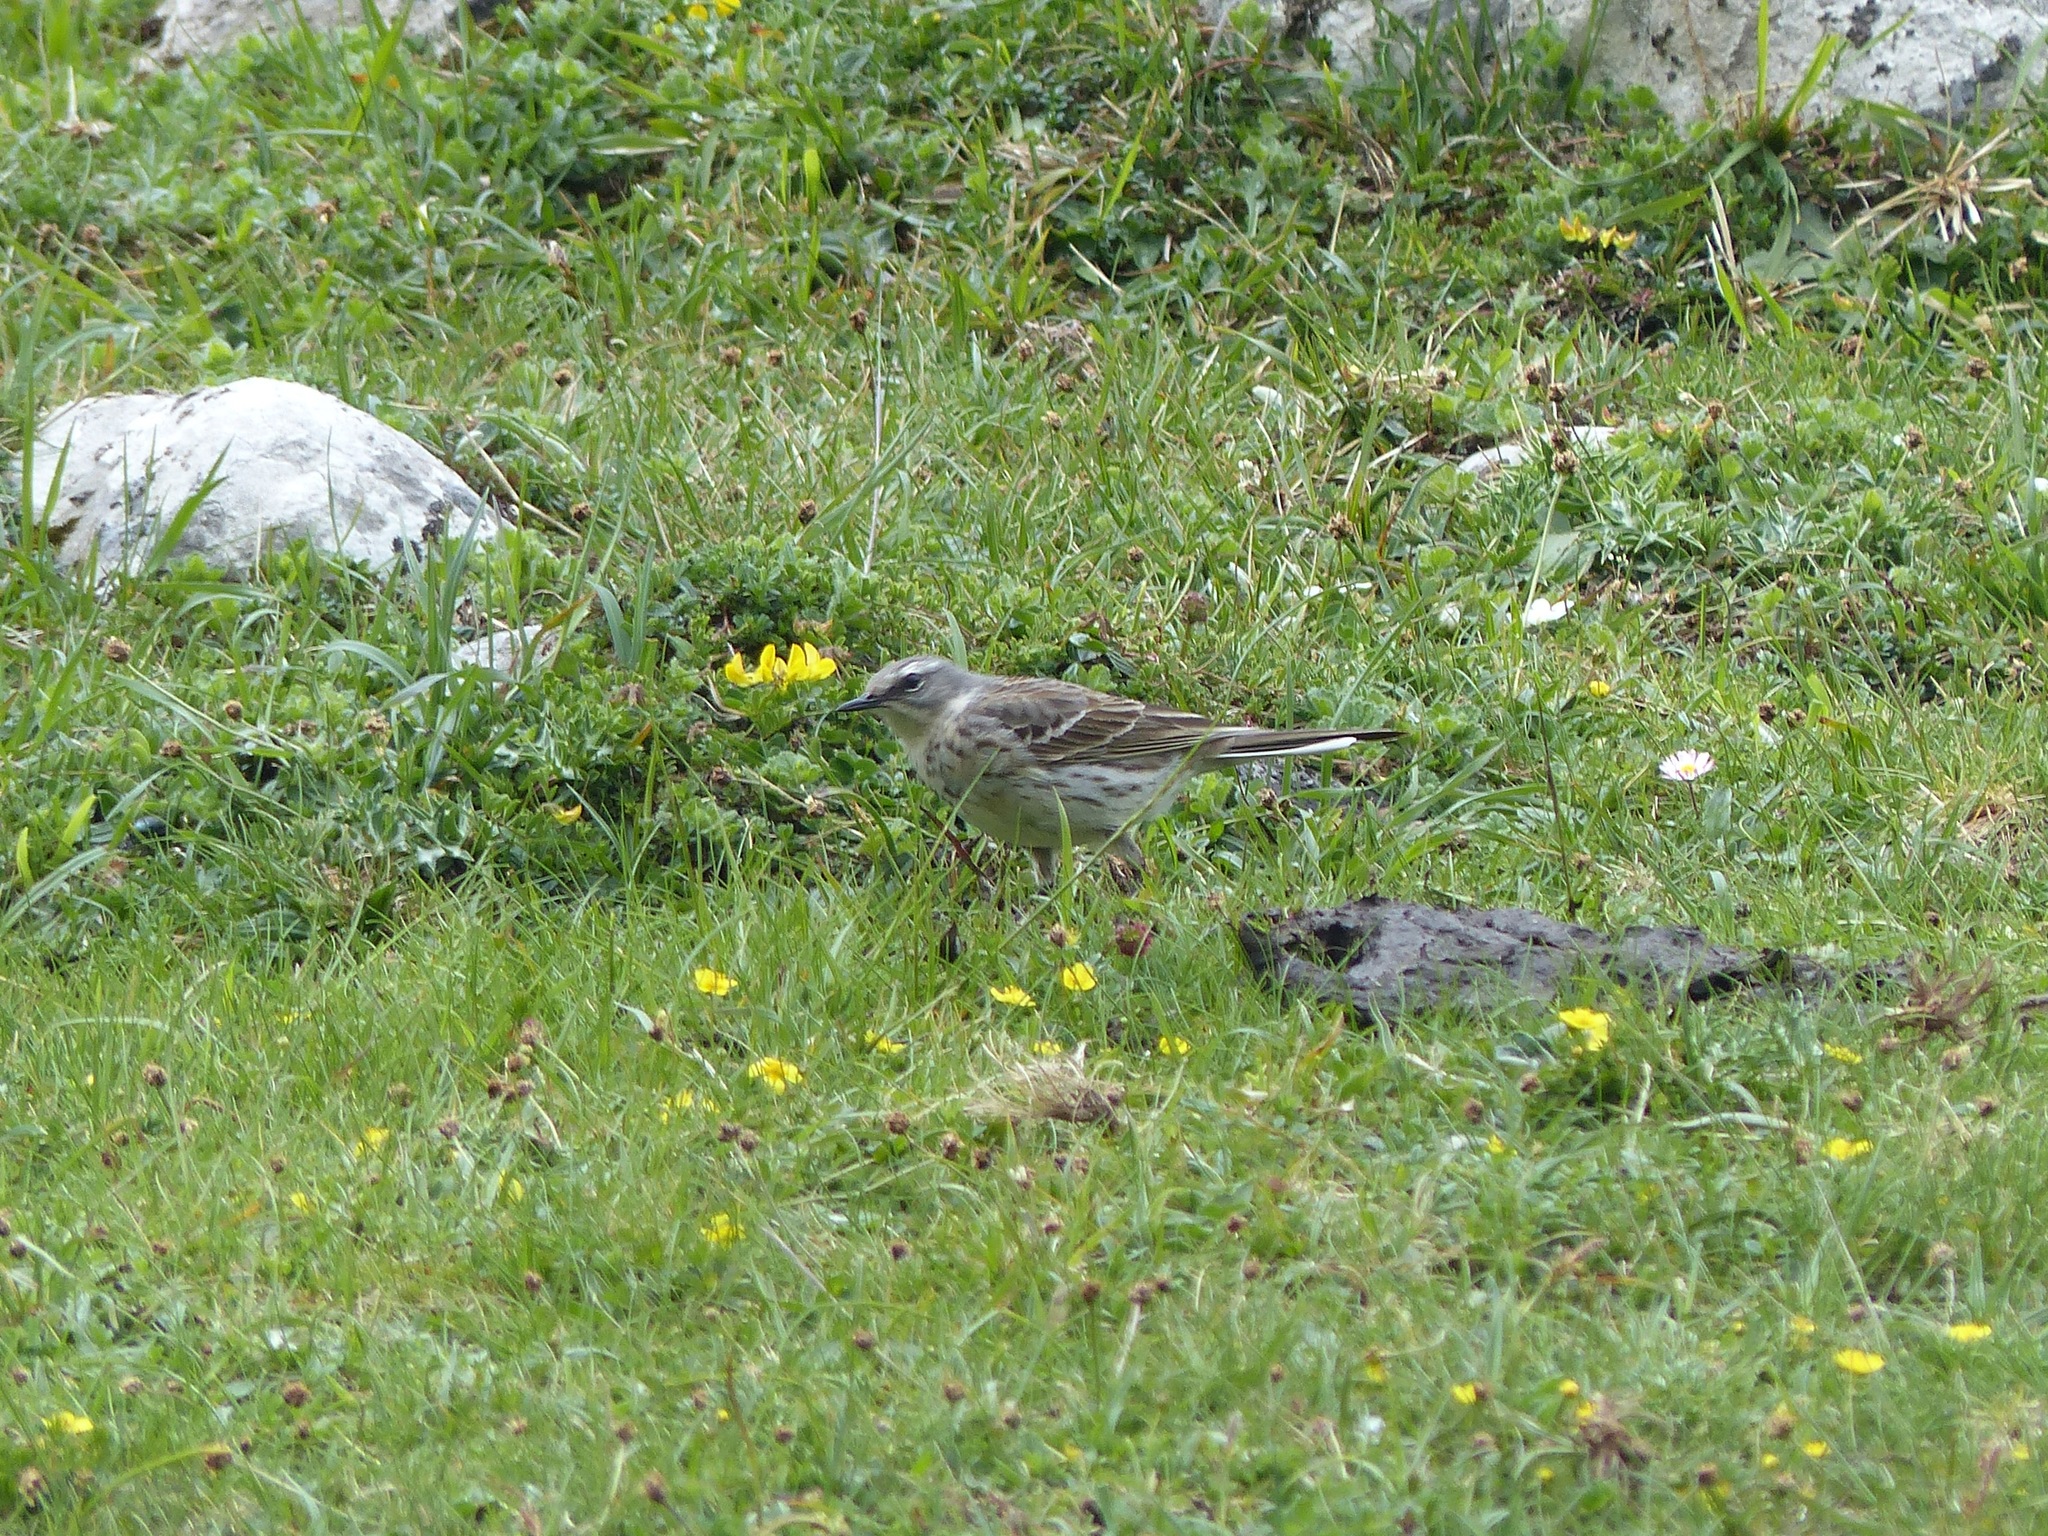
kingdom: Animalia
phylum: Chordata
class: Aves
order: Passeriformes
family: Motacillidae
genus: Anthus
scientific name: Anthus spinoletta
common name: Water pipit
